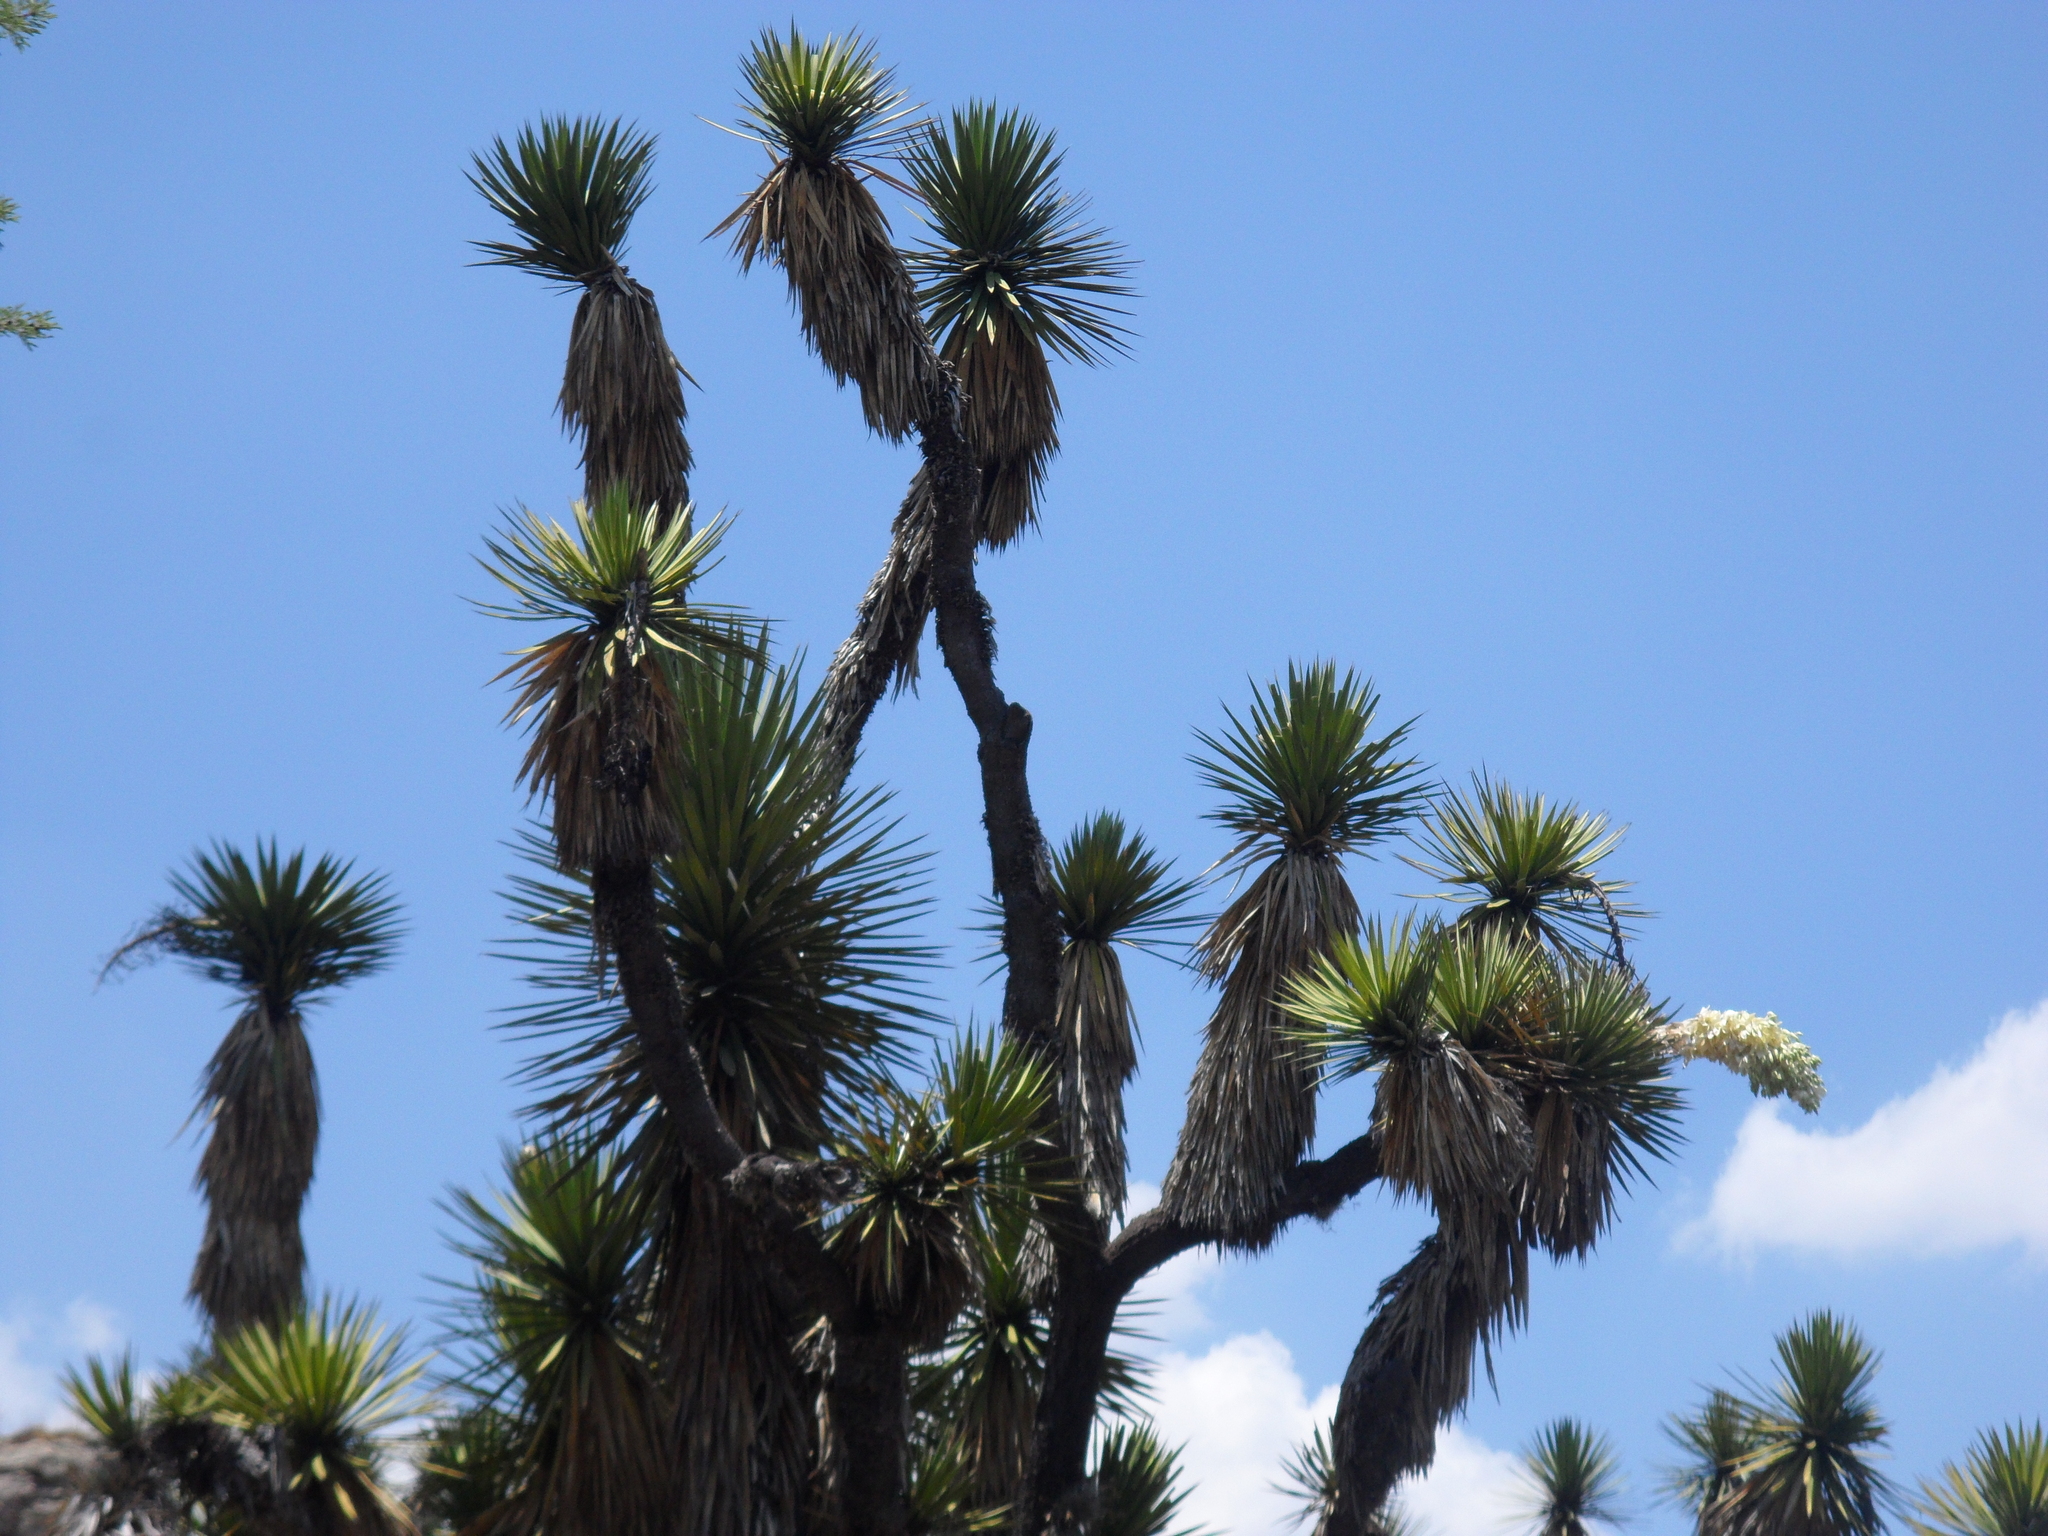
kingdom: Plantae
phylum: Tracheophyta
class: Liliopsida
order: Asparagales
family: Asparagaceae
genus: Yucca
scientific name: Yucca decipiens
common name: Chinese palm
